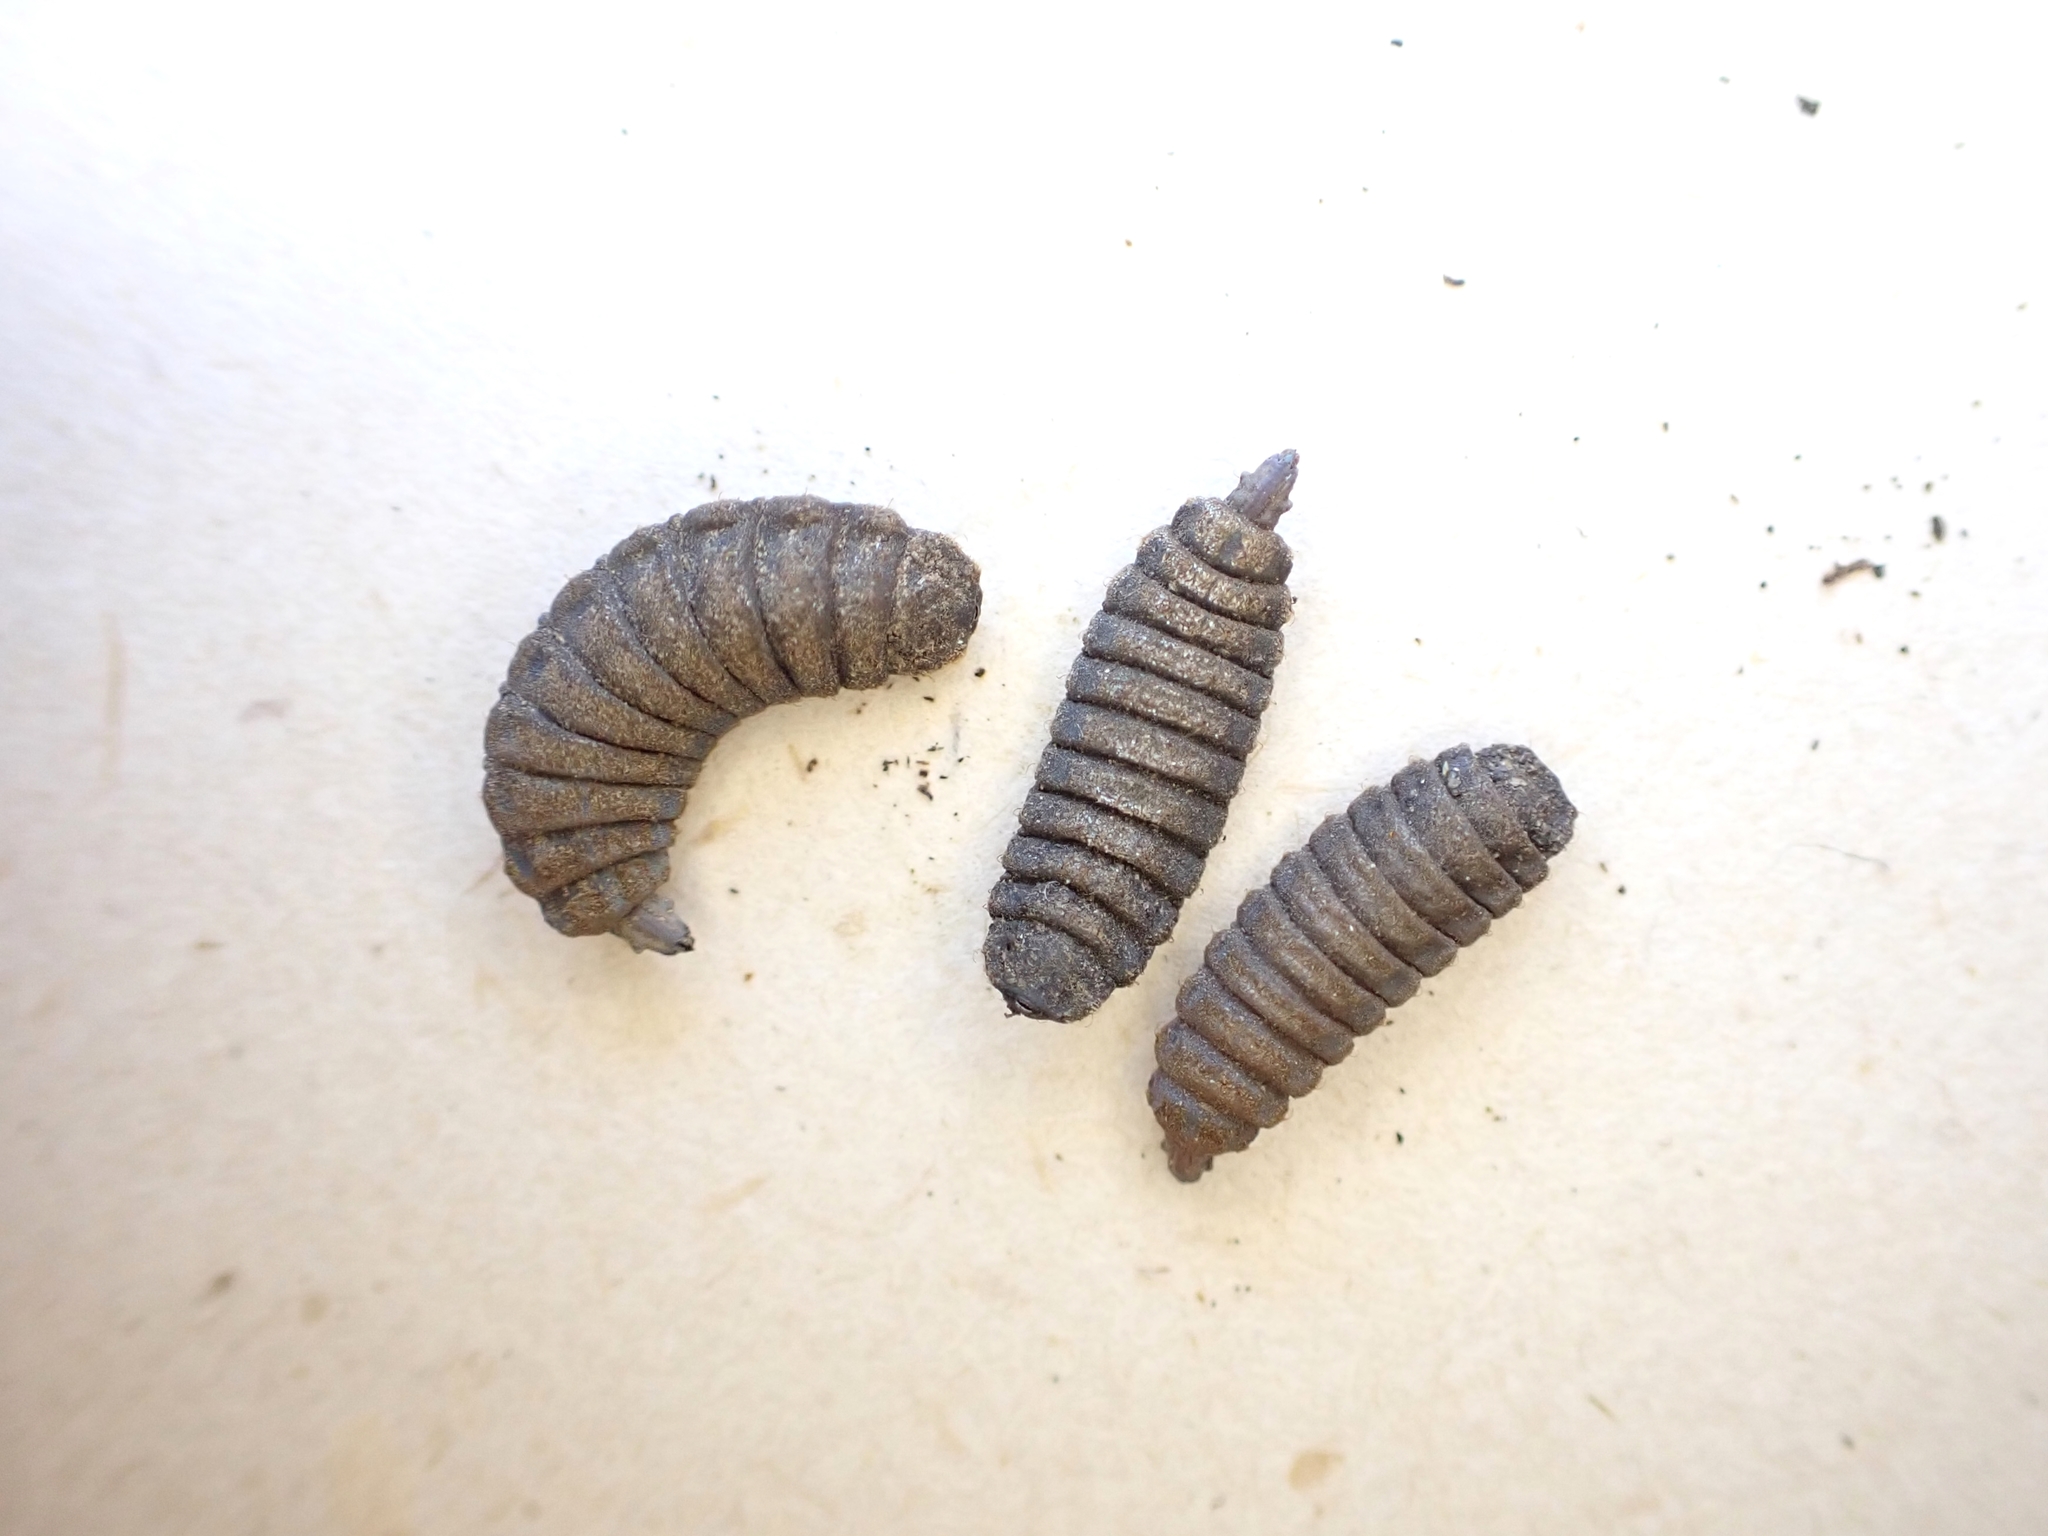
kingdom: Animalia
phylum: Arthropoda
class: Insecta
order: Diptera
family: Stratiomyidae
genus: Hermetia
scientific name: Hermetia illucens
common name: Black soldier fly
